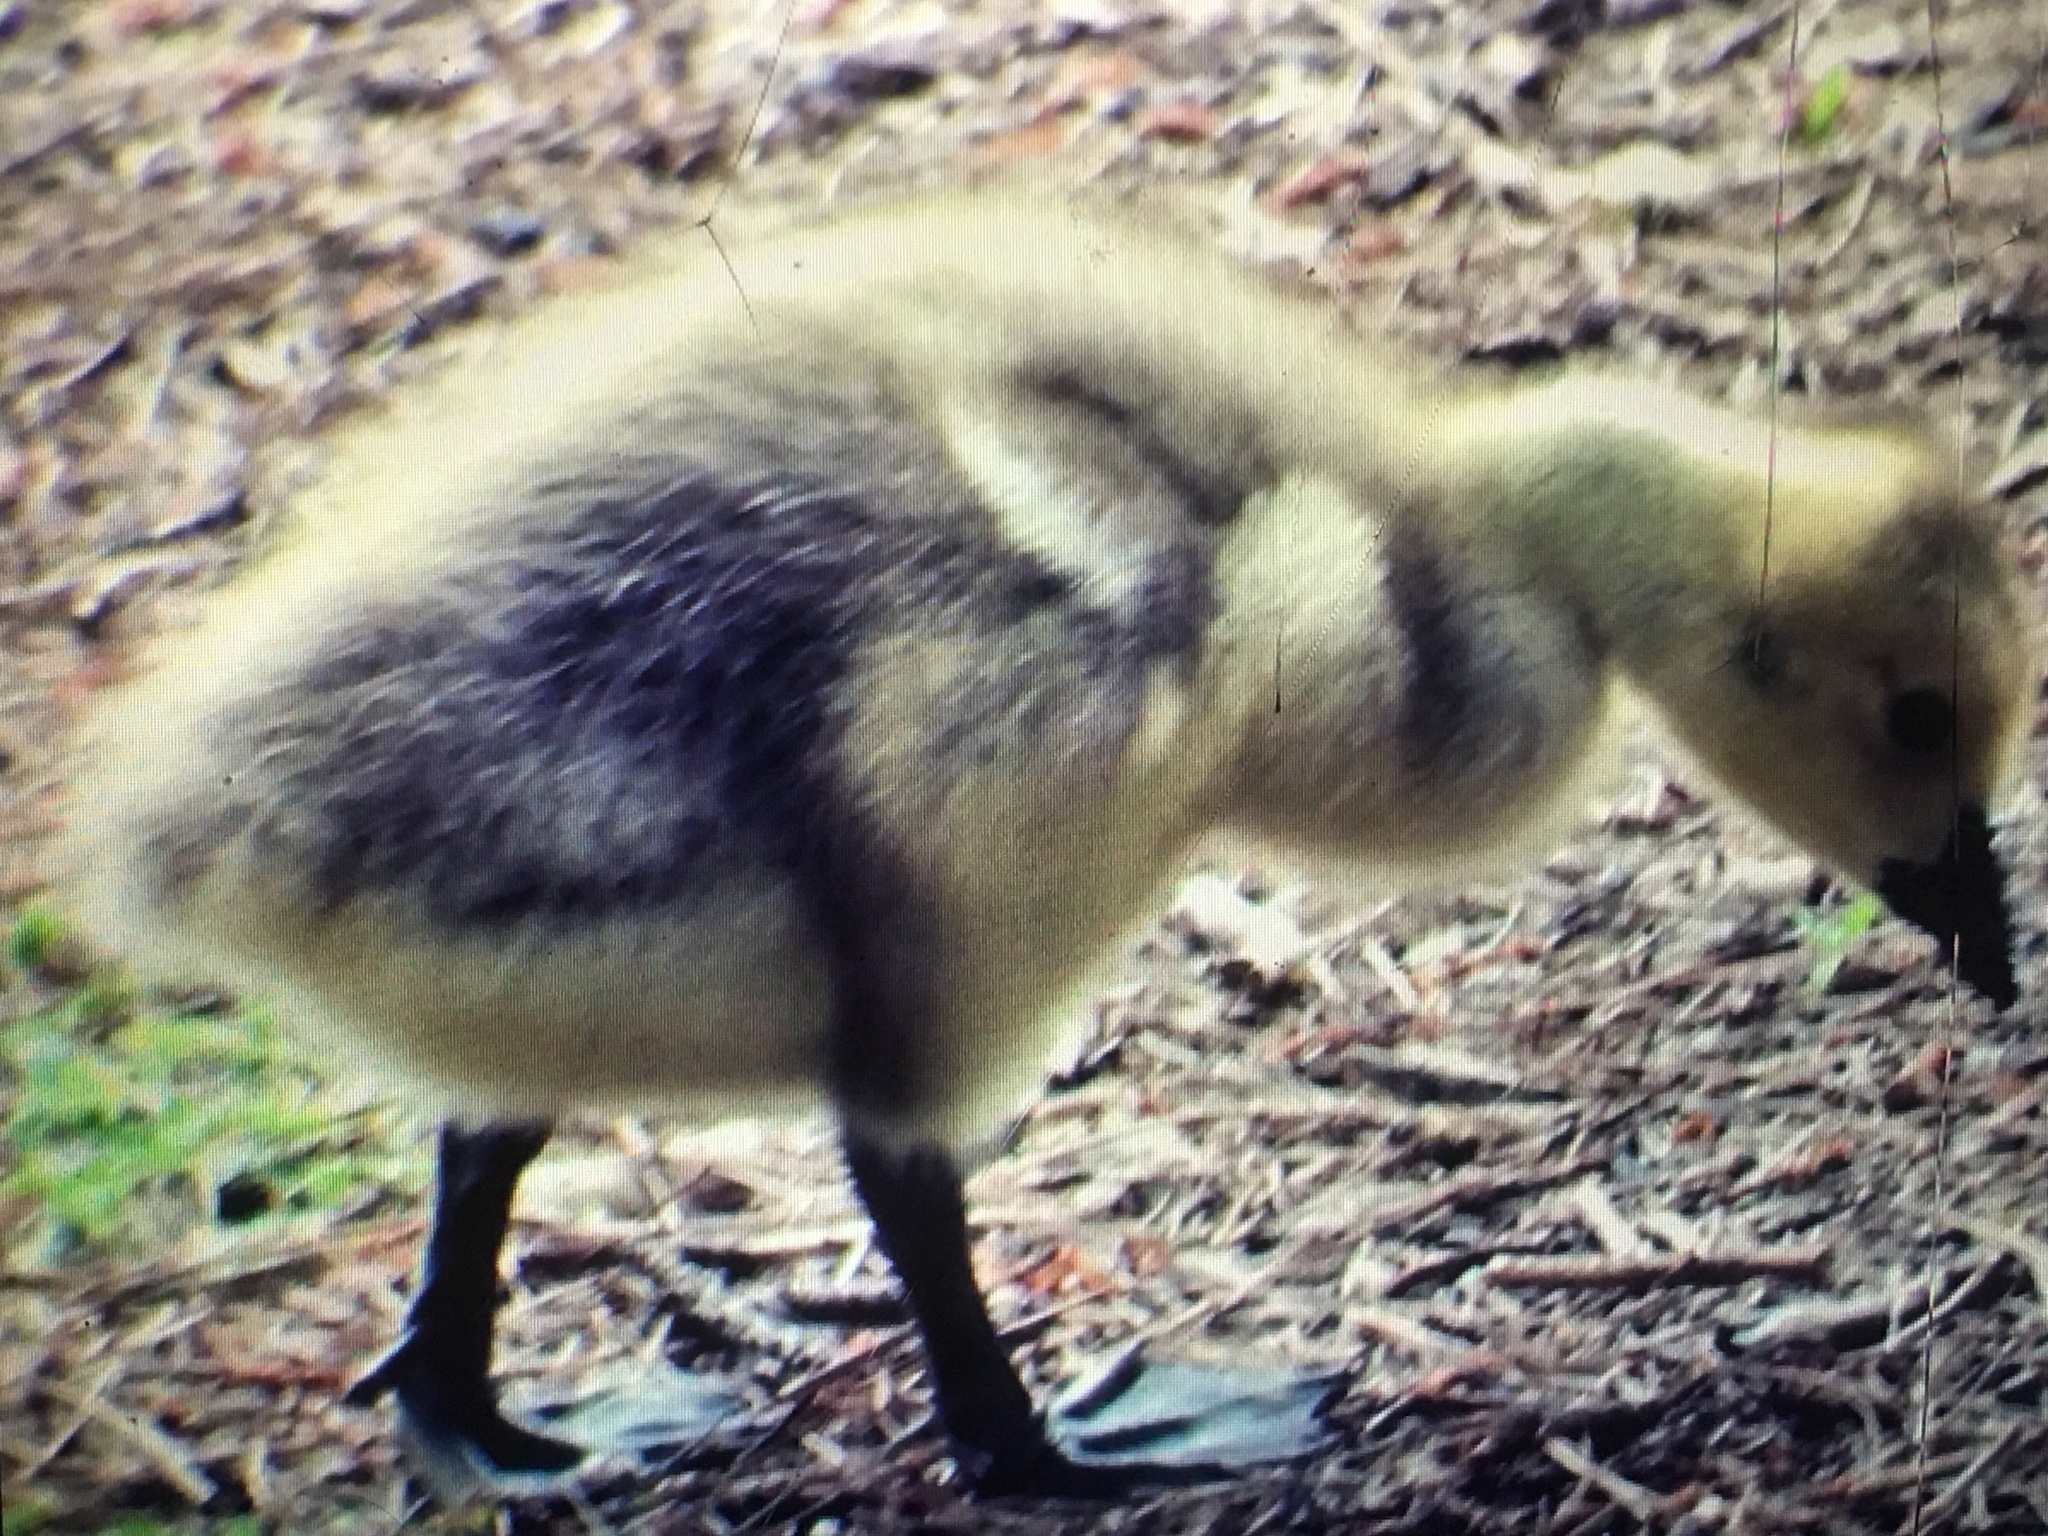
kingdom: Animalia
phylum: Chordata
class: Aves
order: Anseriformes
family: Anatidae
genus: Branta
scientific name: Branta canadensis
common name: Canada goose
